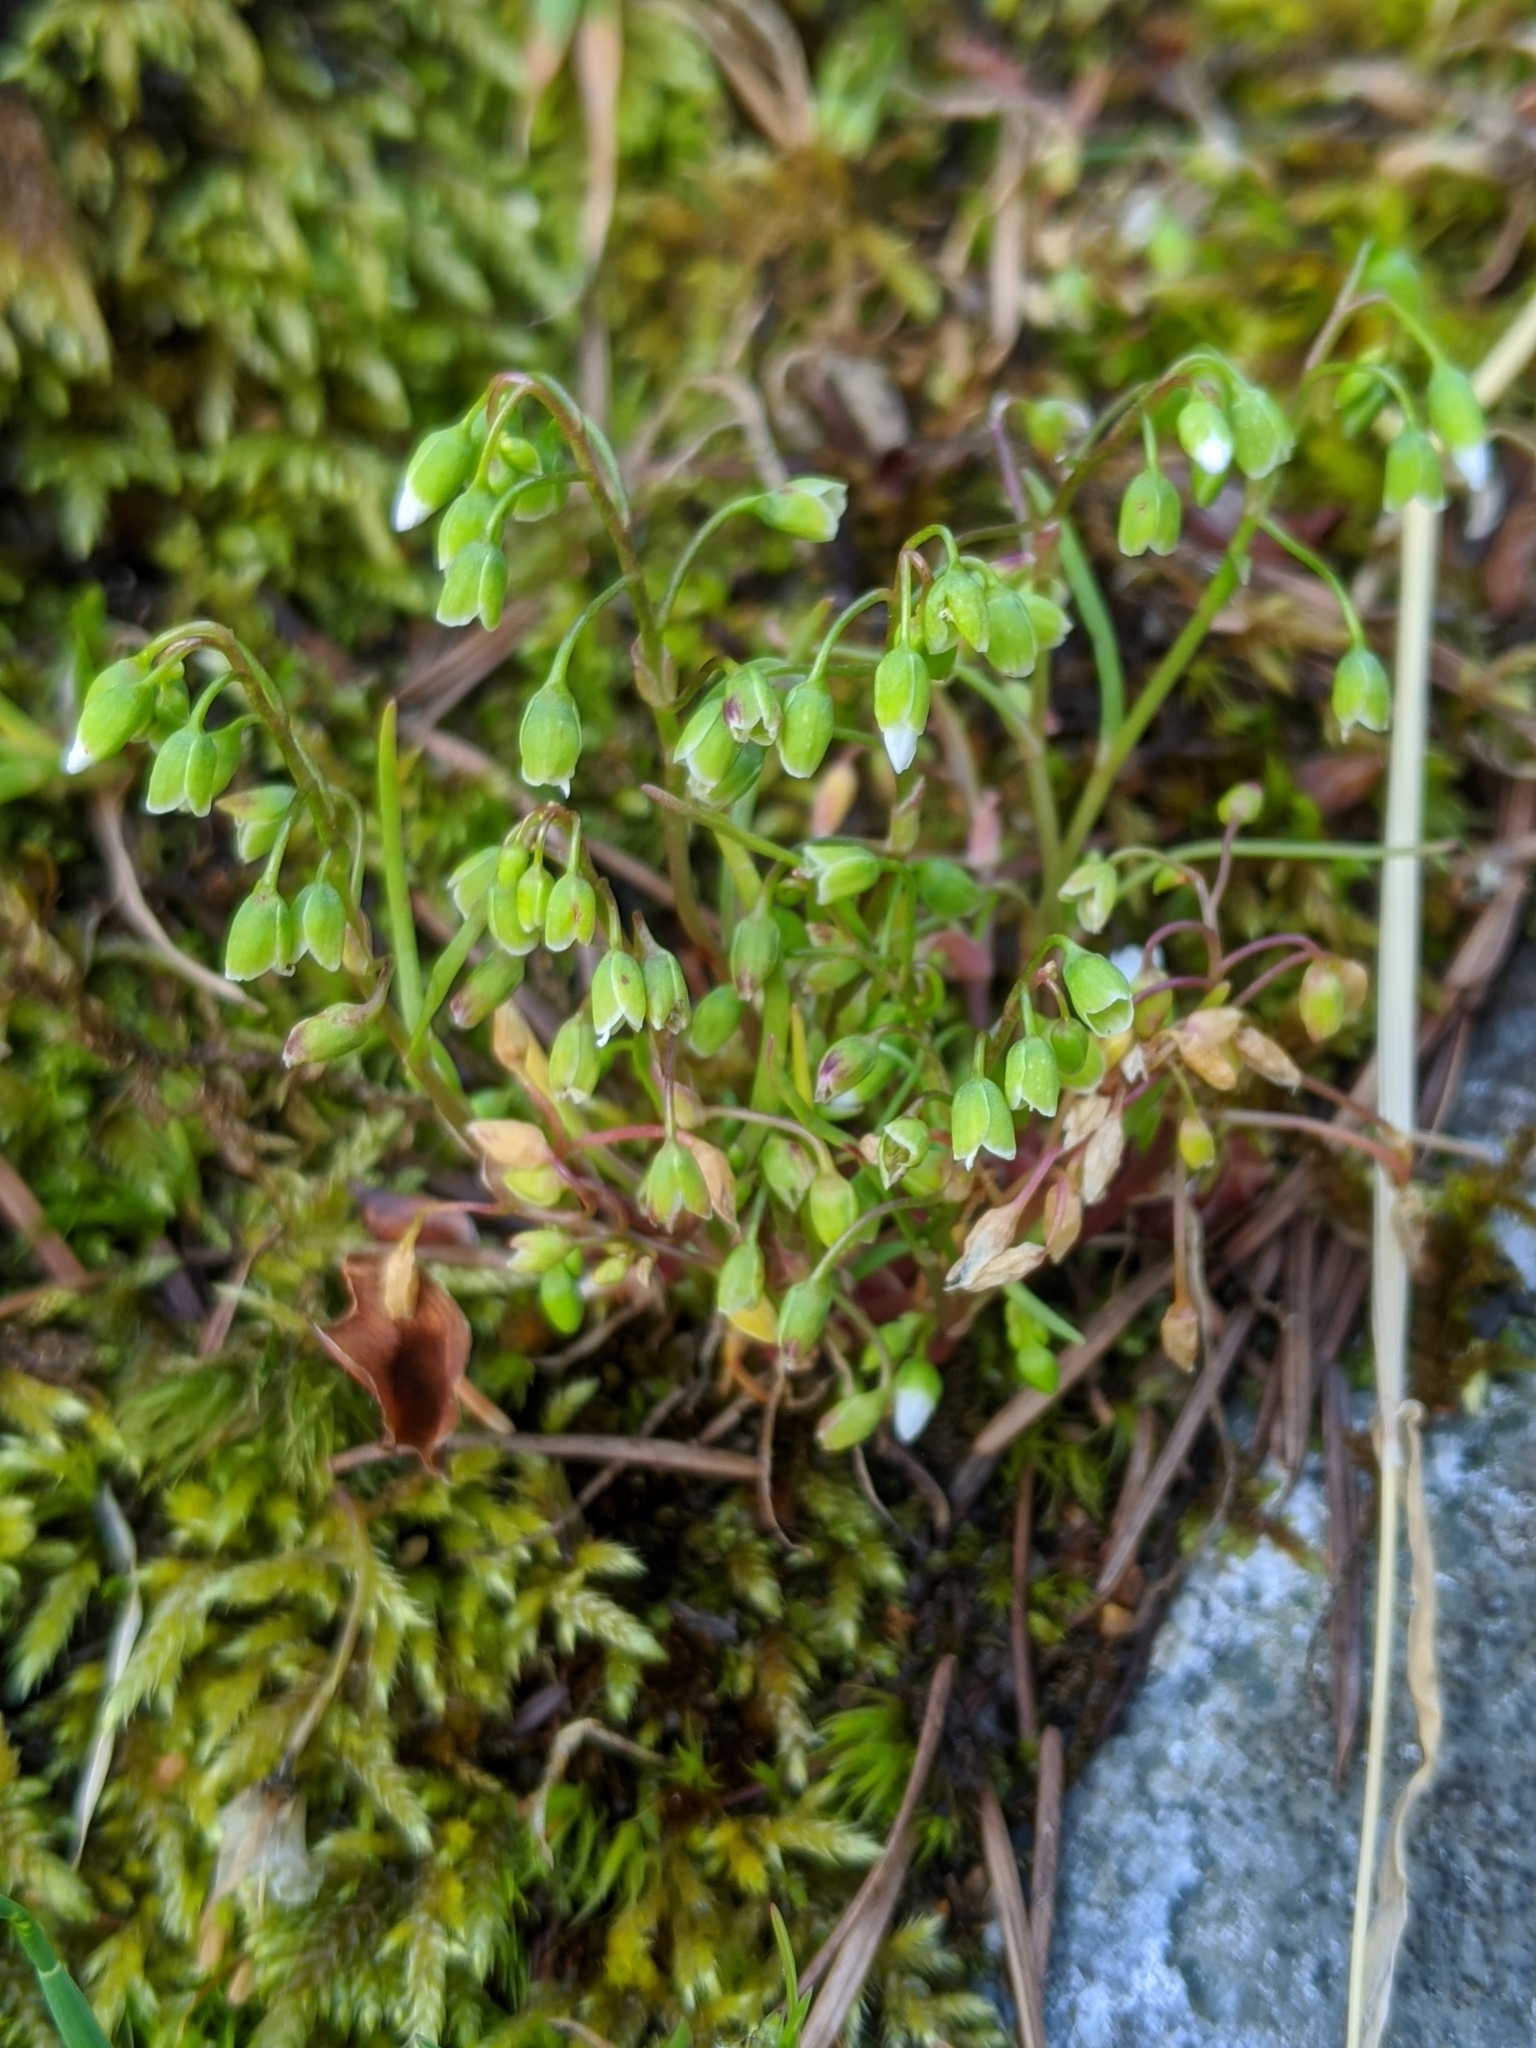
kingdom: Plantae
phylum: Tracheophyta
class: Magnoliopsida
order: Caryophyllales
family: Montiaceae
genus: Montia
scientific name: Montia linearis
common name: Narrow-leaf montia
